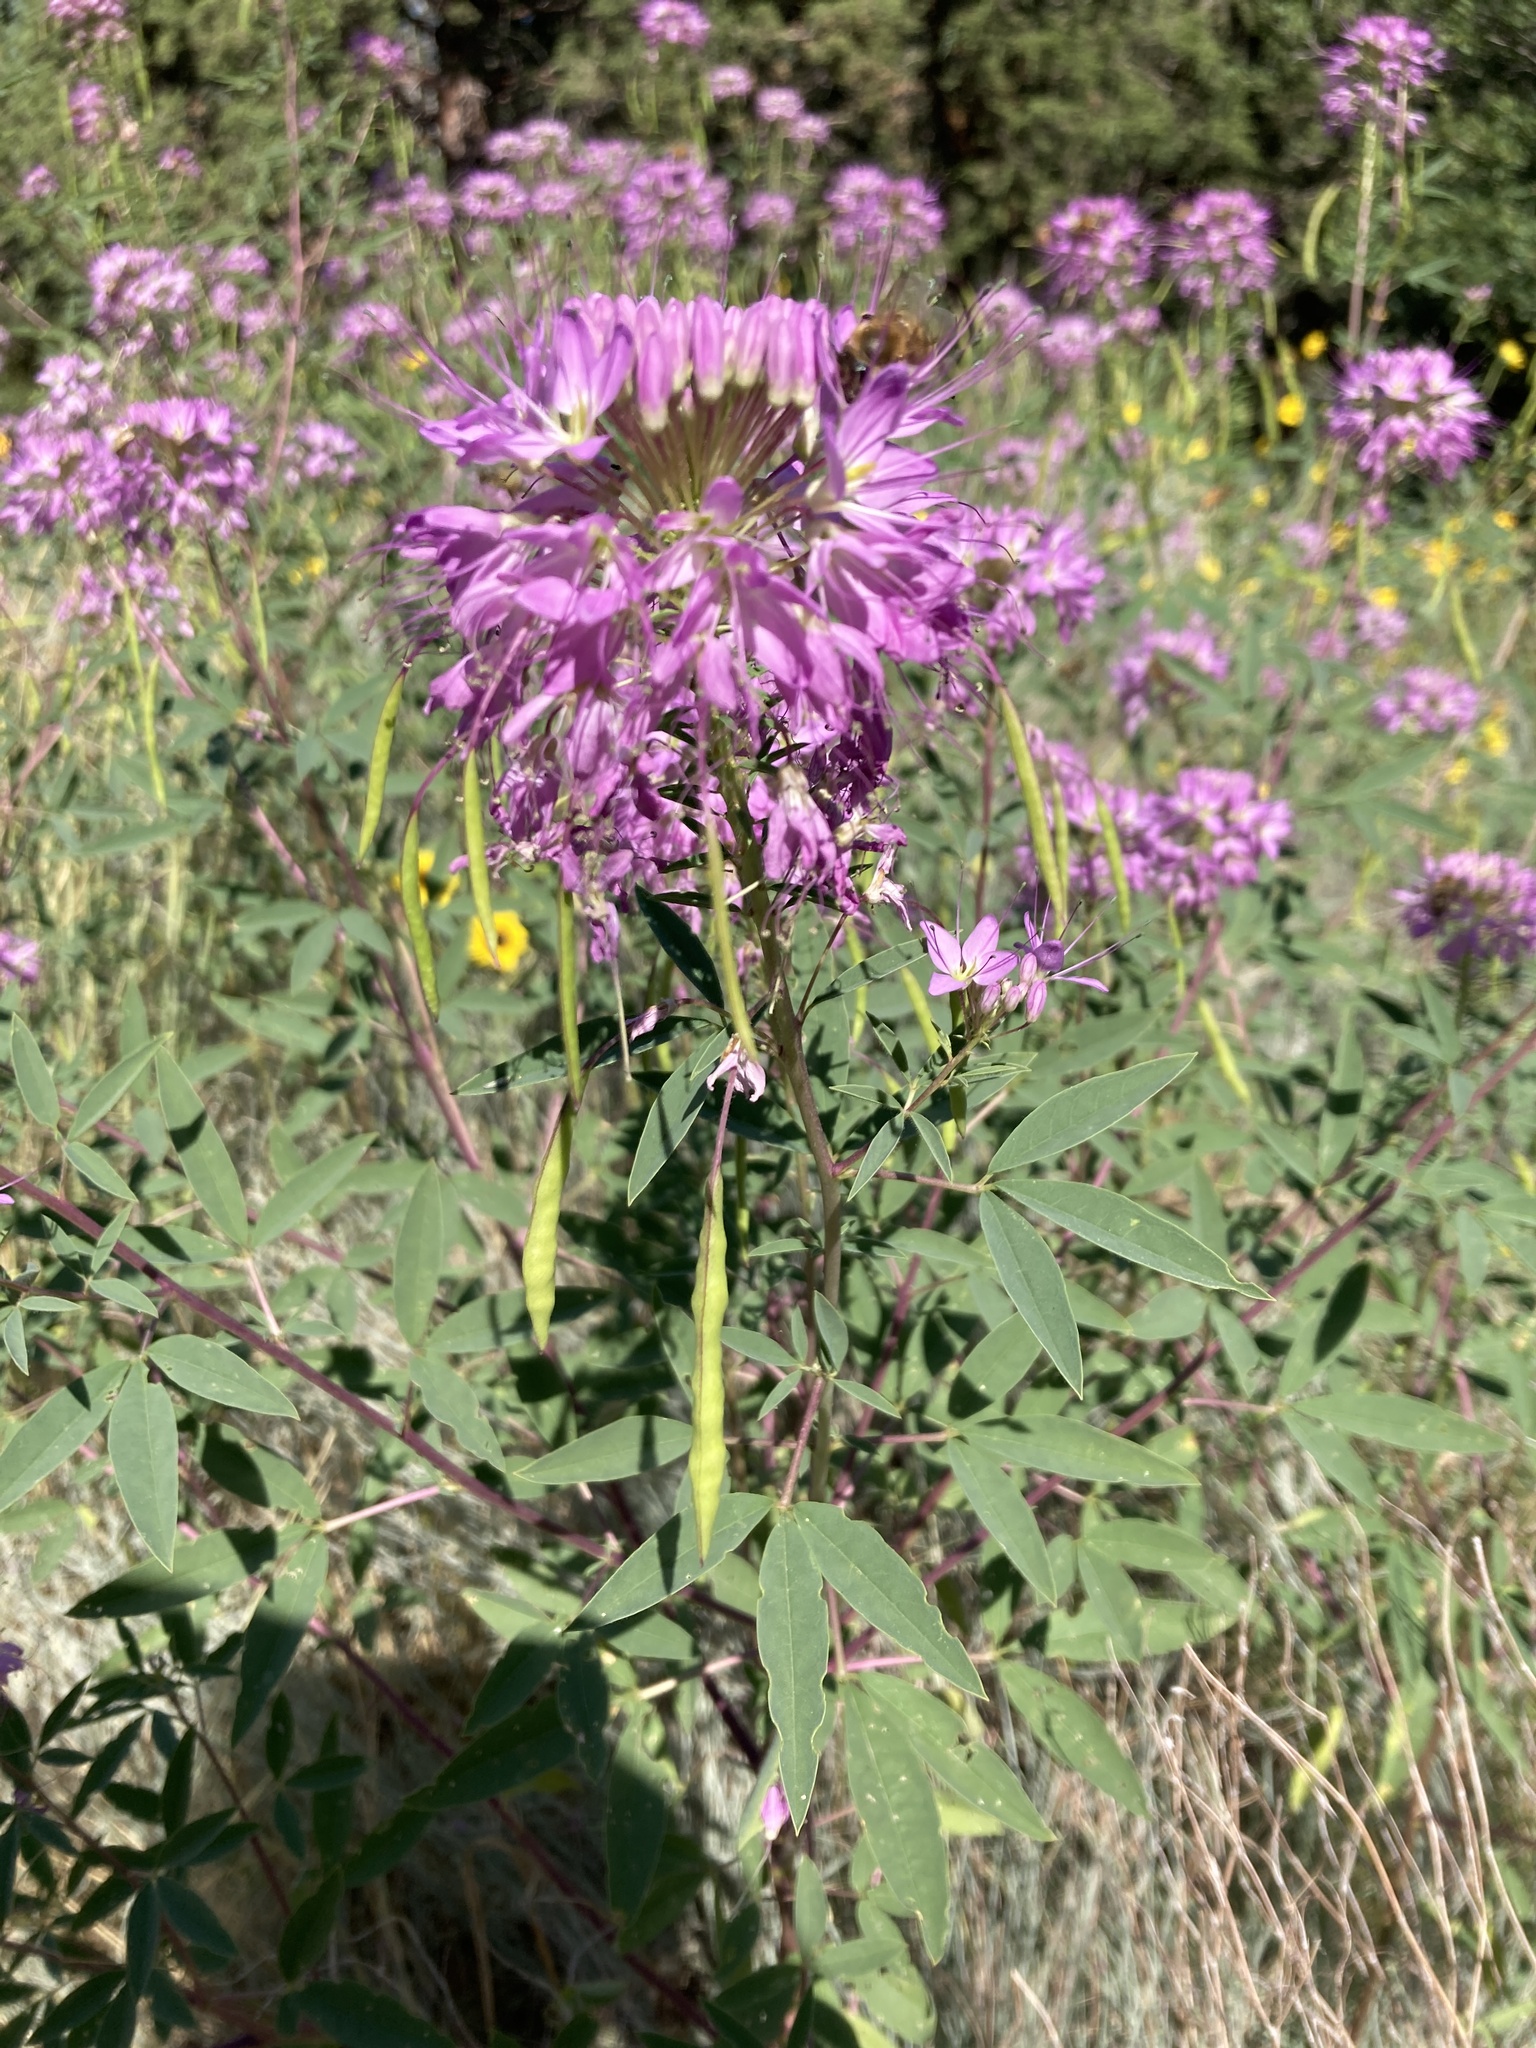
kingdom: Plantae
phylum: Tracheophyta
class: Magnoliopsida
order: Brassicales
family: Cleomaceae
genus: Cleomella
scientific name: Cleomella serrulata
